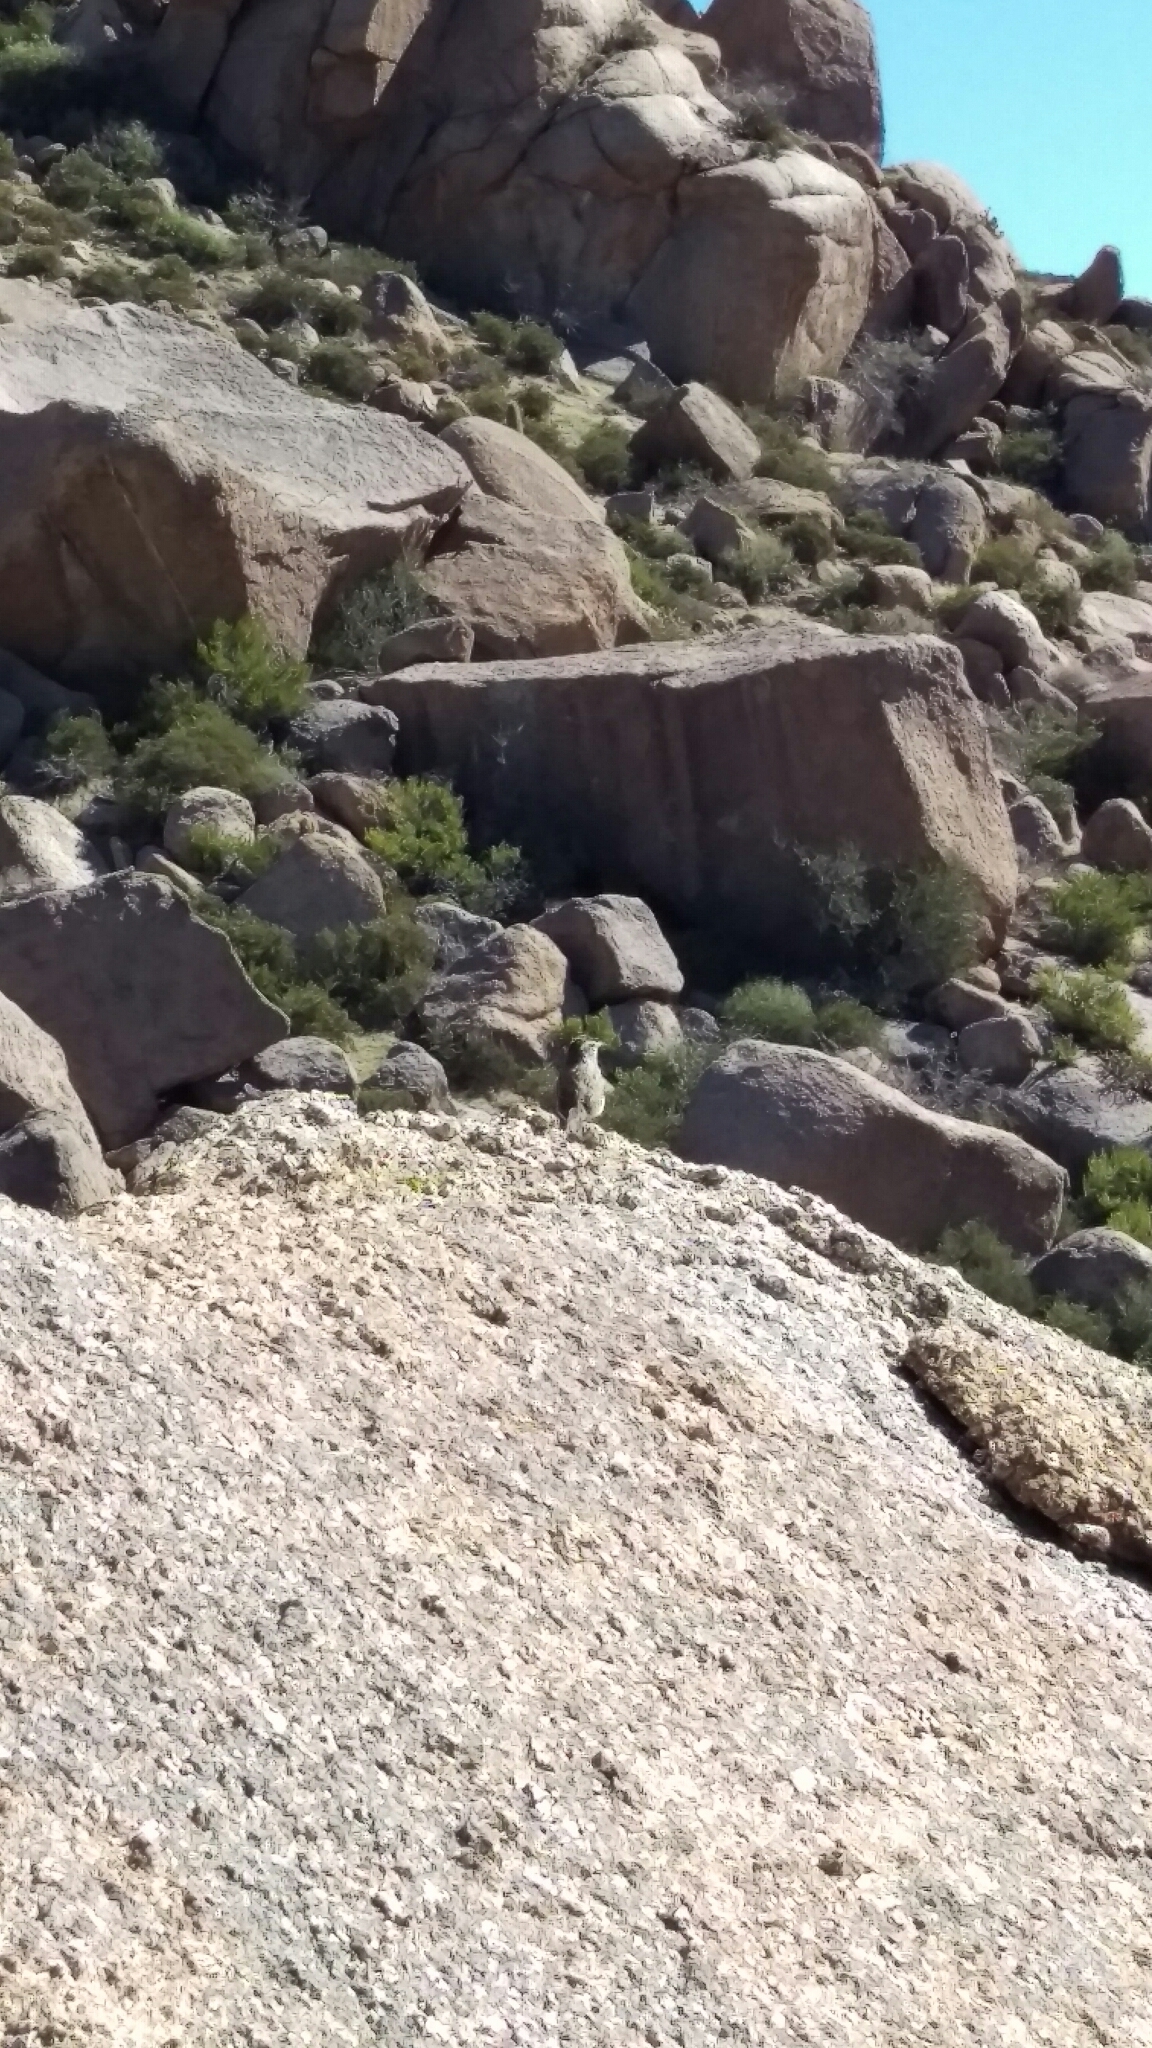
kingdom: Animalia
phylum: Chordata
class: Aves
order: Passeriformes
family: Troglodytidae
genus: Campylorhynchus
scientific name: Campylorhynchus brunneicapillus
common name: Cactus wren
